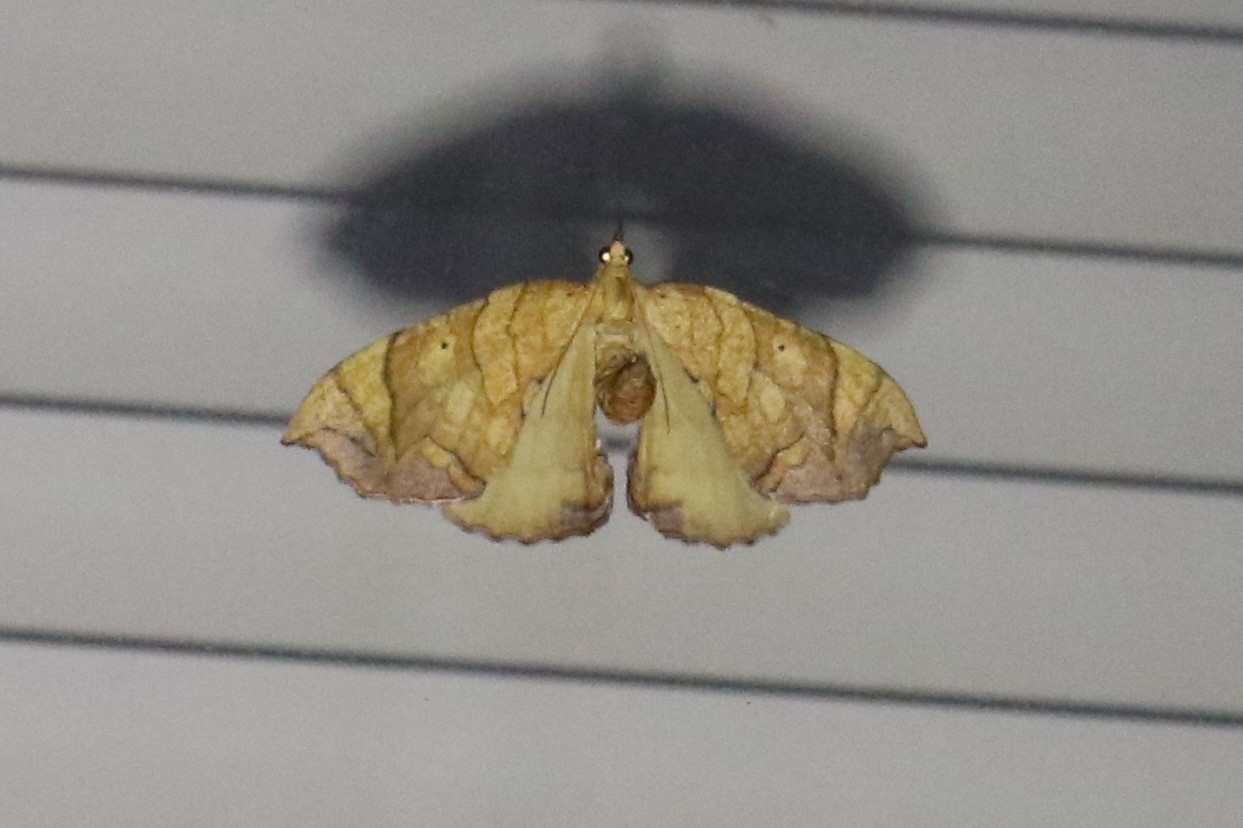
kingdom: Animalia
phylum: Arthropoda
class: Insecta
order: Lepidoptera
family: Geometridae
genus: Eulithis
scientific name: Eulithis
